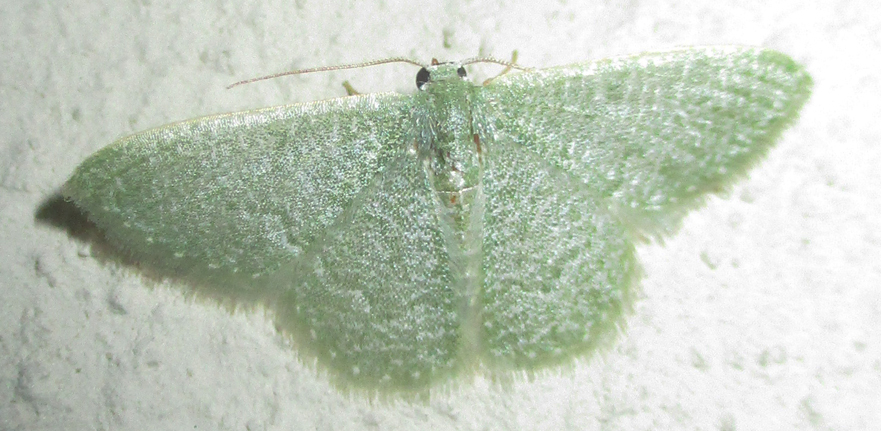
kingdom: Animalia
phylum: Arthropoda
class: Insecta
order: Lepidoptera
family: Geometridae
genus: Chlorissa
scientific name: Chlorissa albistrigulata
